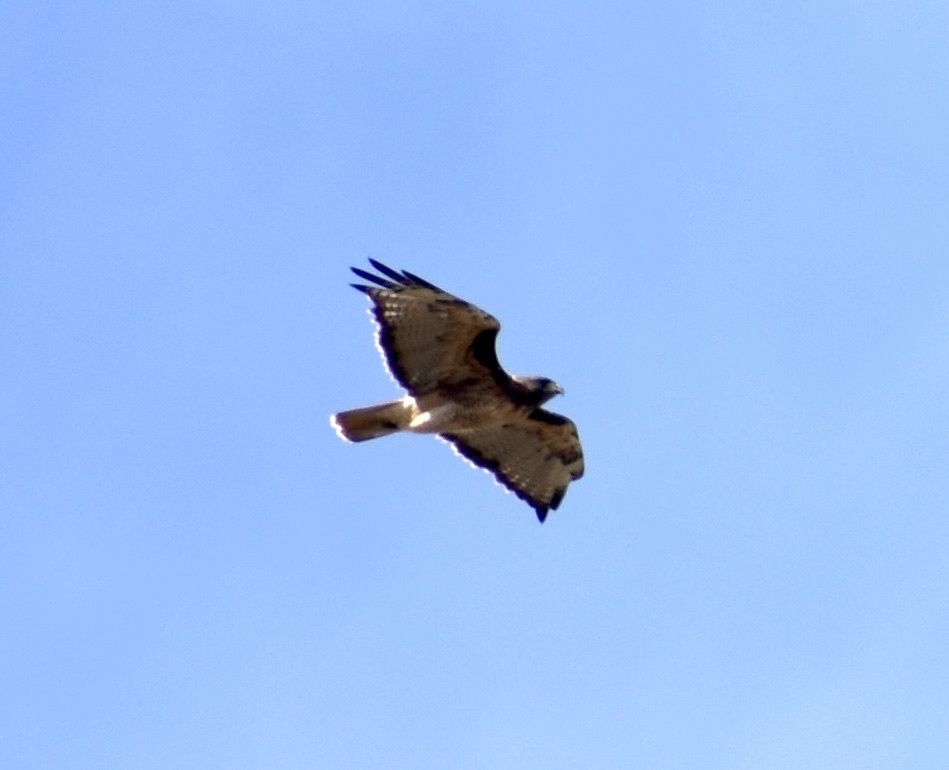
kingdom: Animalia
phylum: Chordata
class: Aves
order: Accipitriformes
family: Accipitridae
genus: Buteo
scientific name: Buteo jamaicensis
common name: Red-tailed hawk
